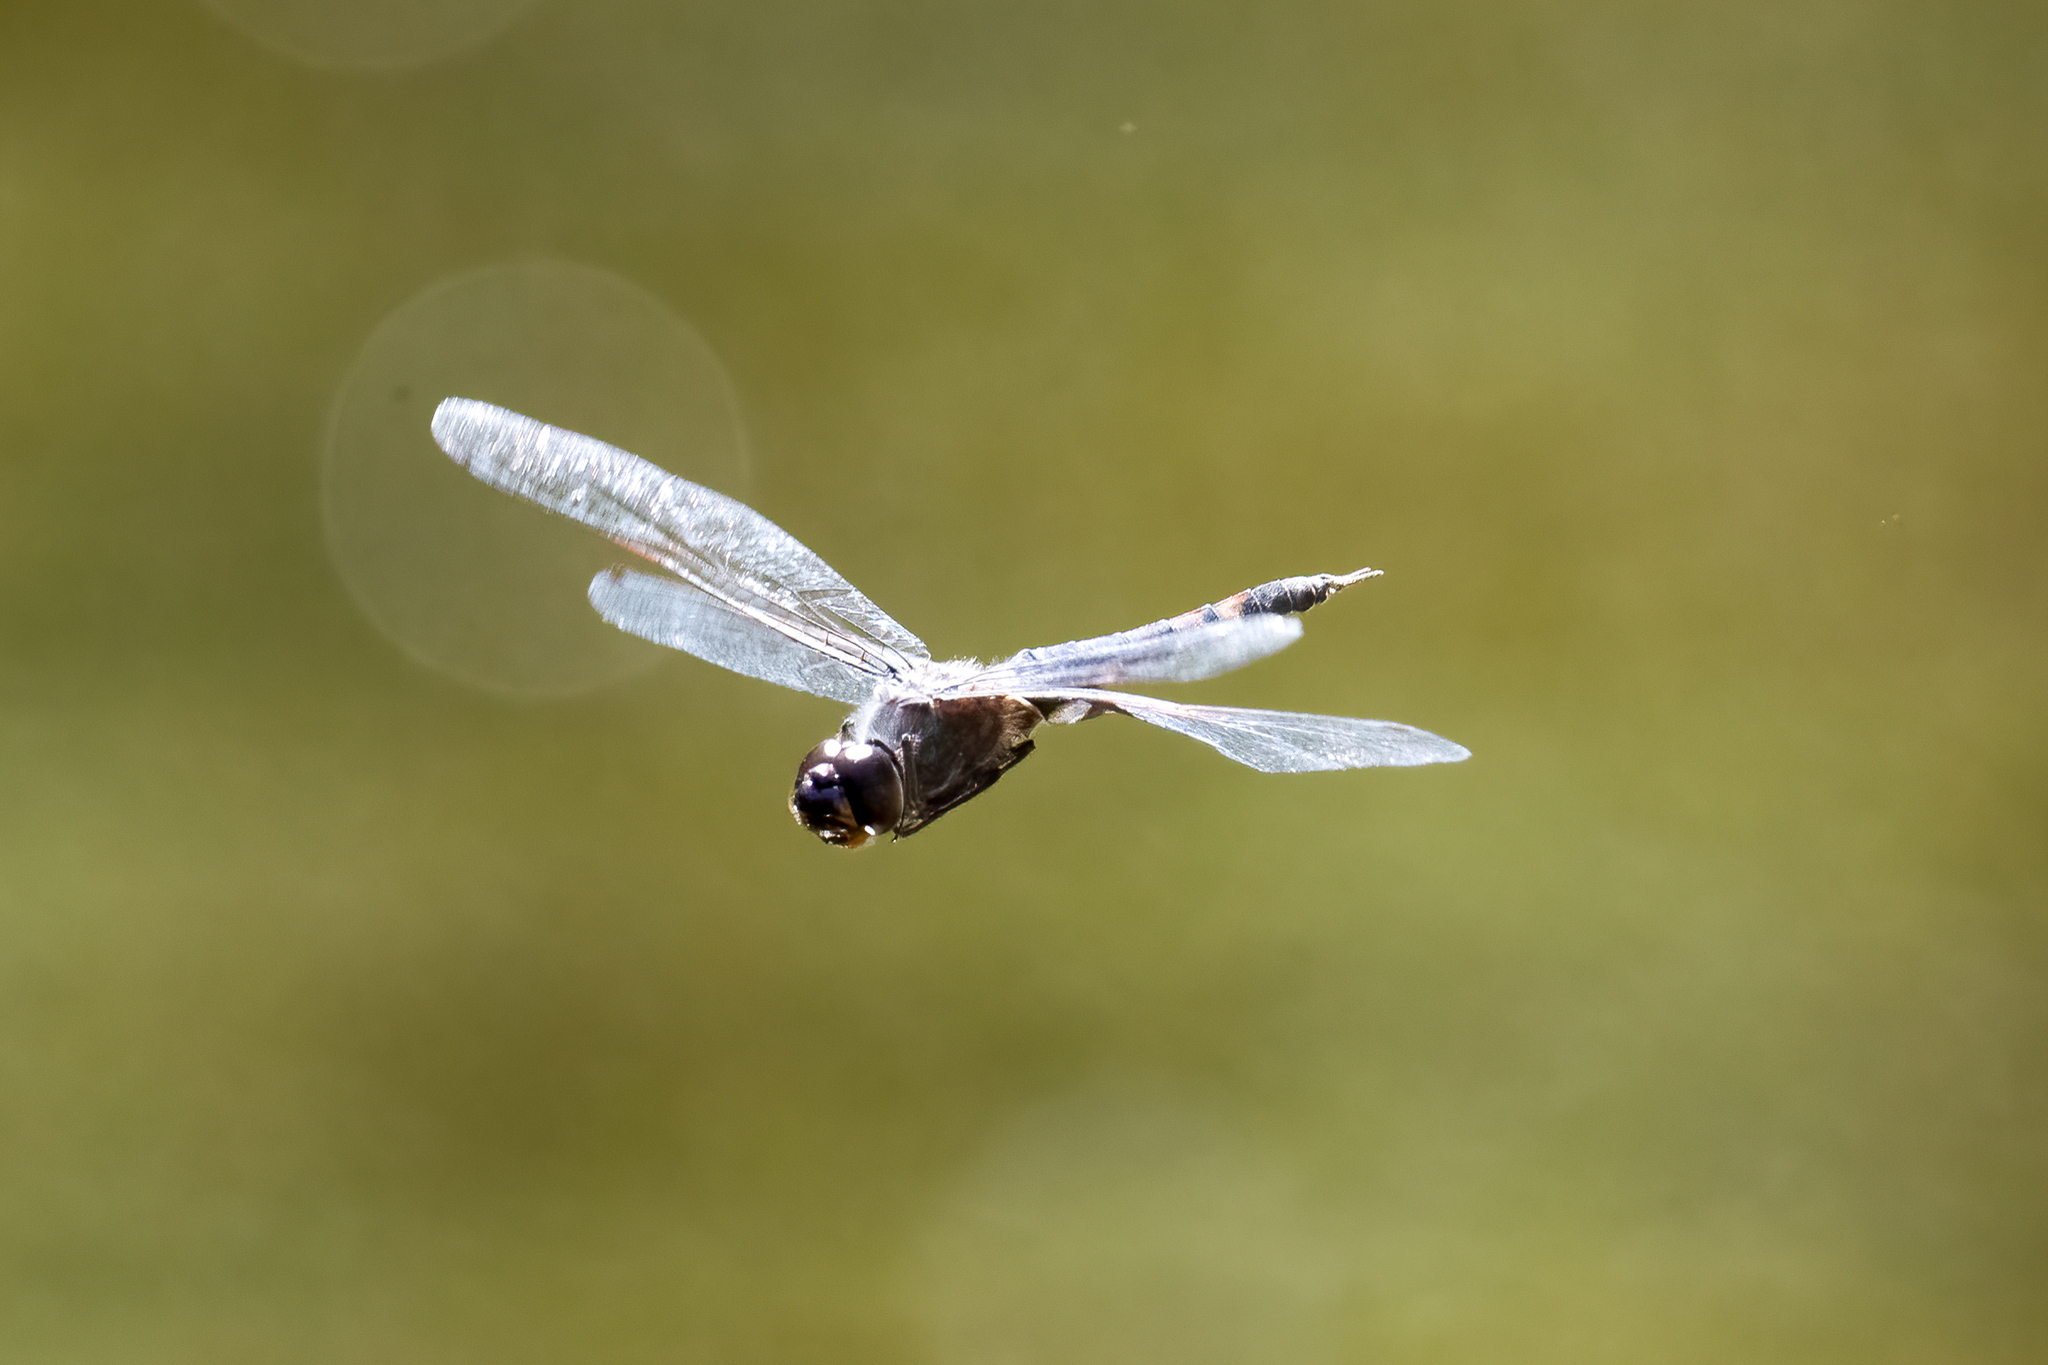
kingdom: Animalia
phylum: Arthropoda
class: Insecta
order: Odonata
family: Libellulidae
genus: Tramea
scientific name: Tramea lacerata
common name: Black saddlebags
